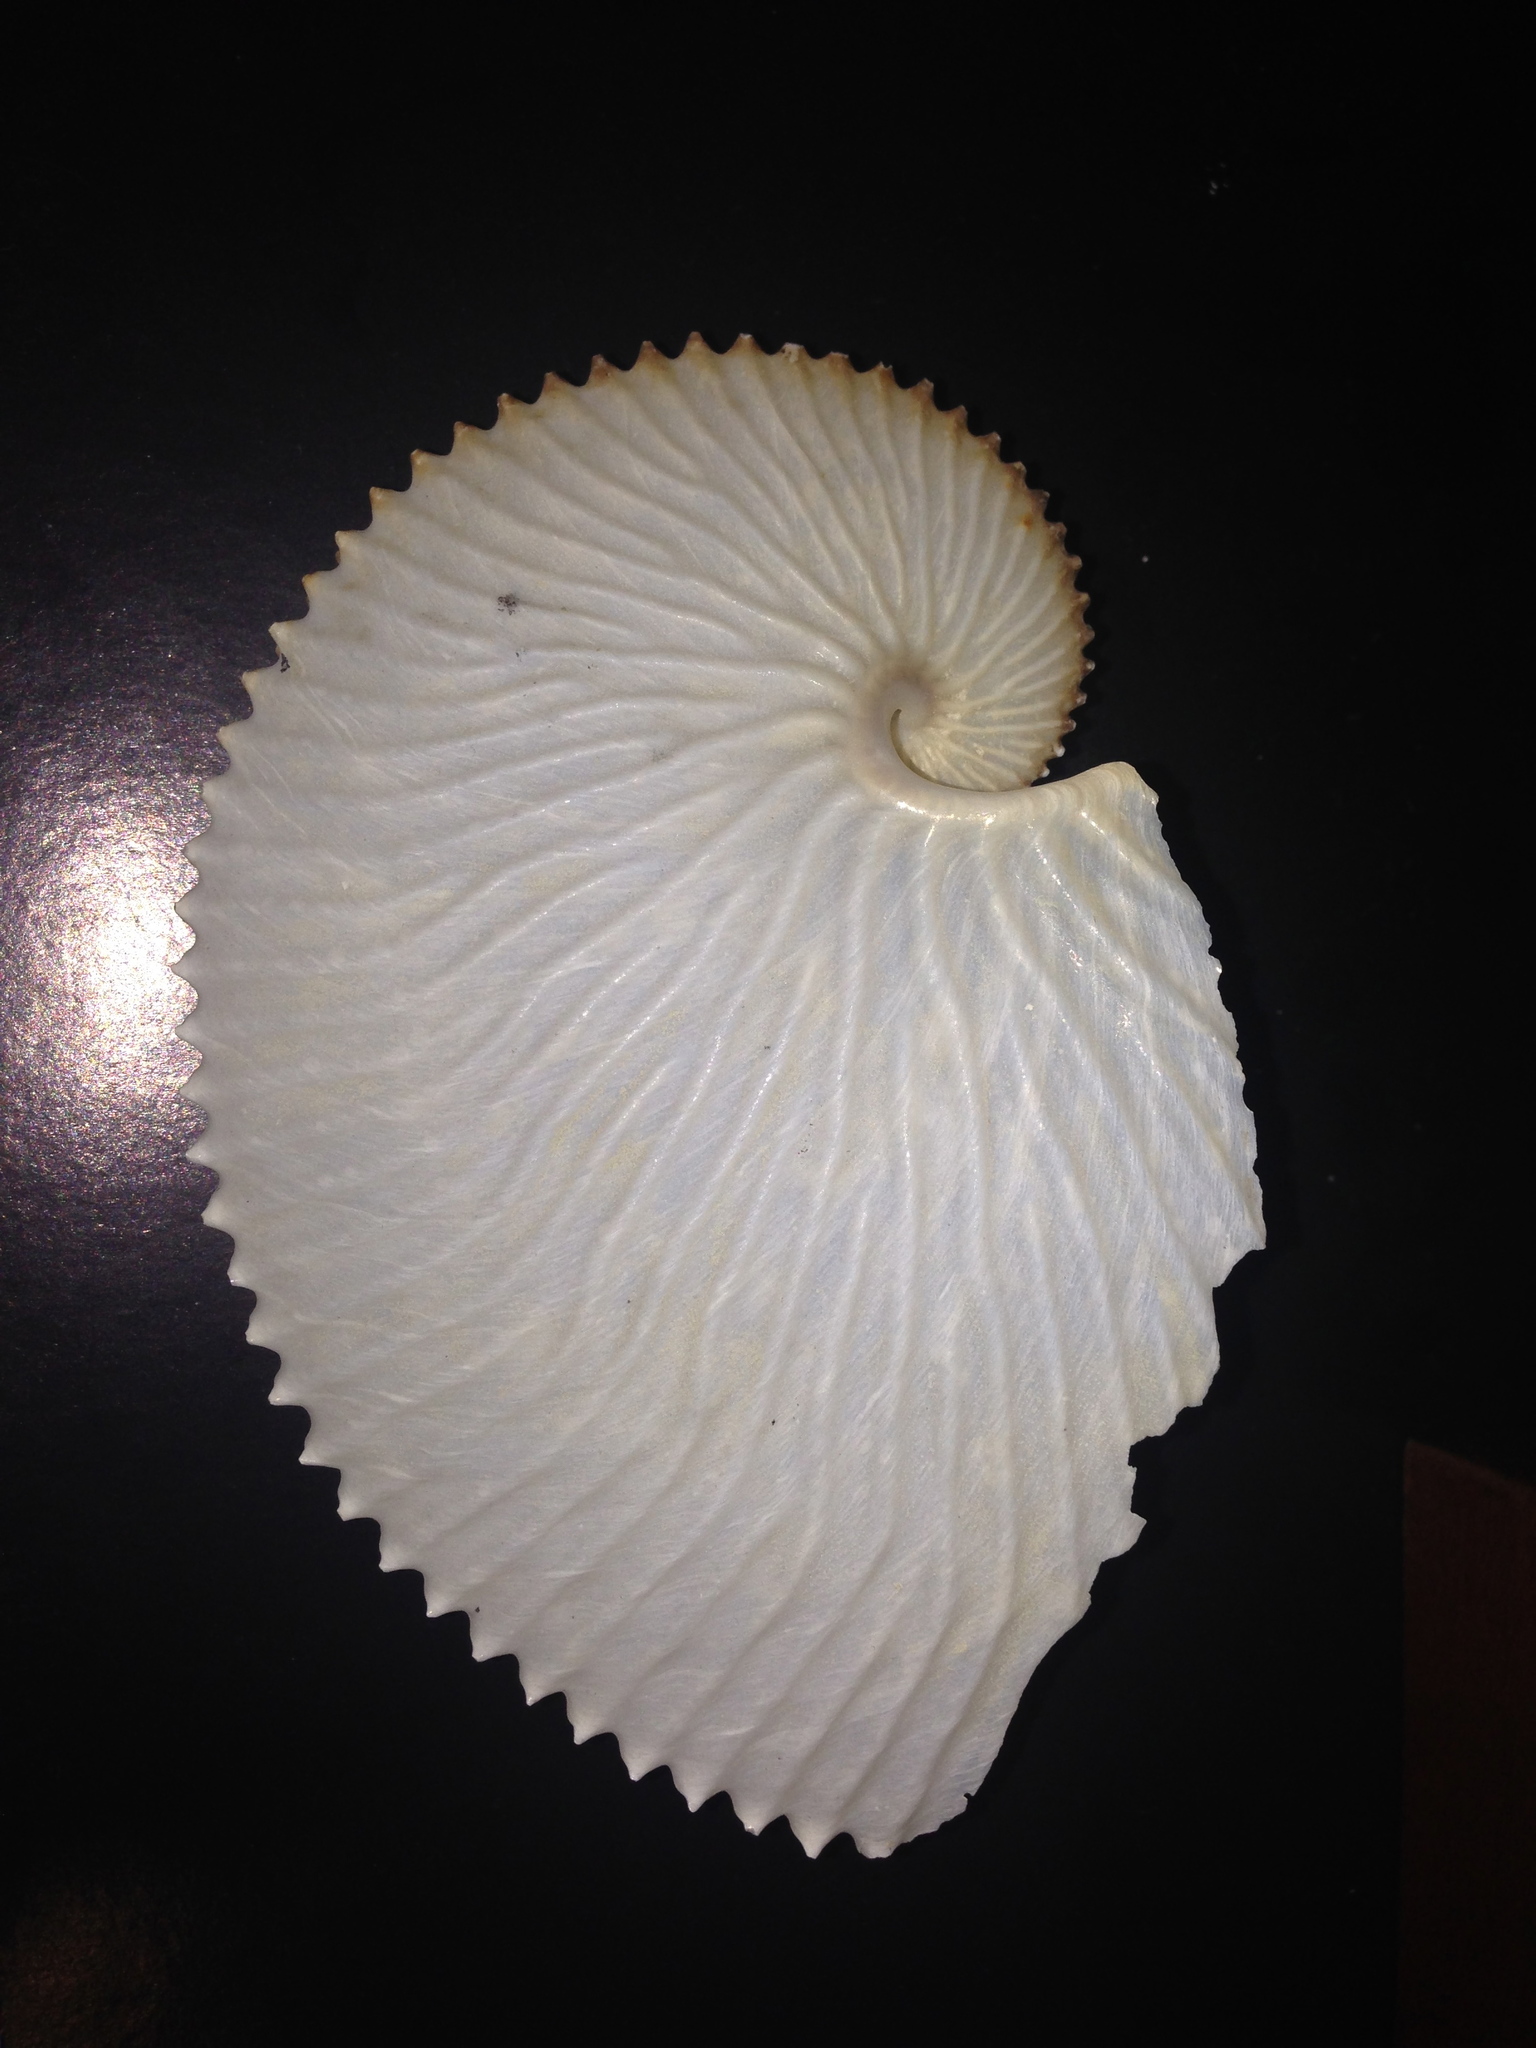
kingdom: Animalia
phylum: Mollusca
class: Cephalopoda
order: Octopoda
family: Argonautidae
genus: Argonauta
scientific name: Argonauta argo
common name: Common paper nautilus
